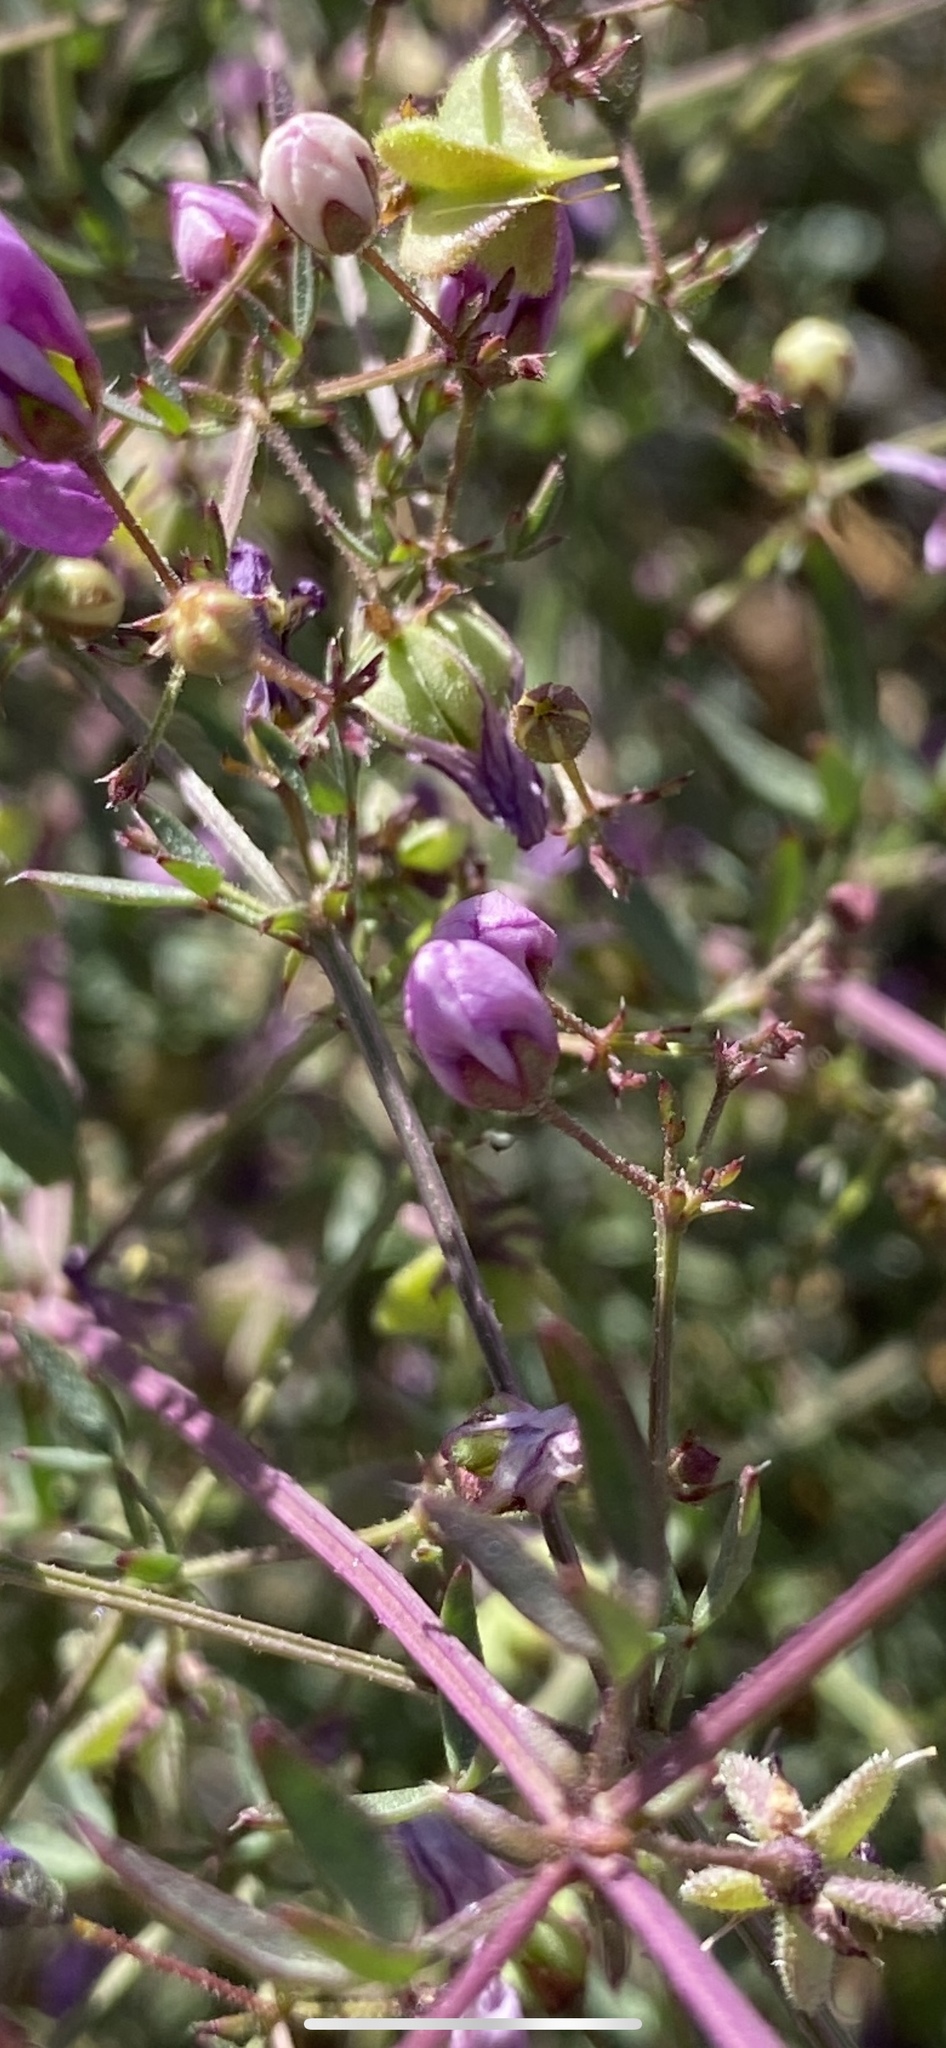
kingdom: Plantae
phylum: Tracheophyta
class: Magnoliopsida
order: Zygophyllales
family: Zygophyllaceae
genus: Fagonia
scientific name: Fagonia laevis
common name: California fagonbush
